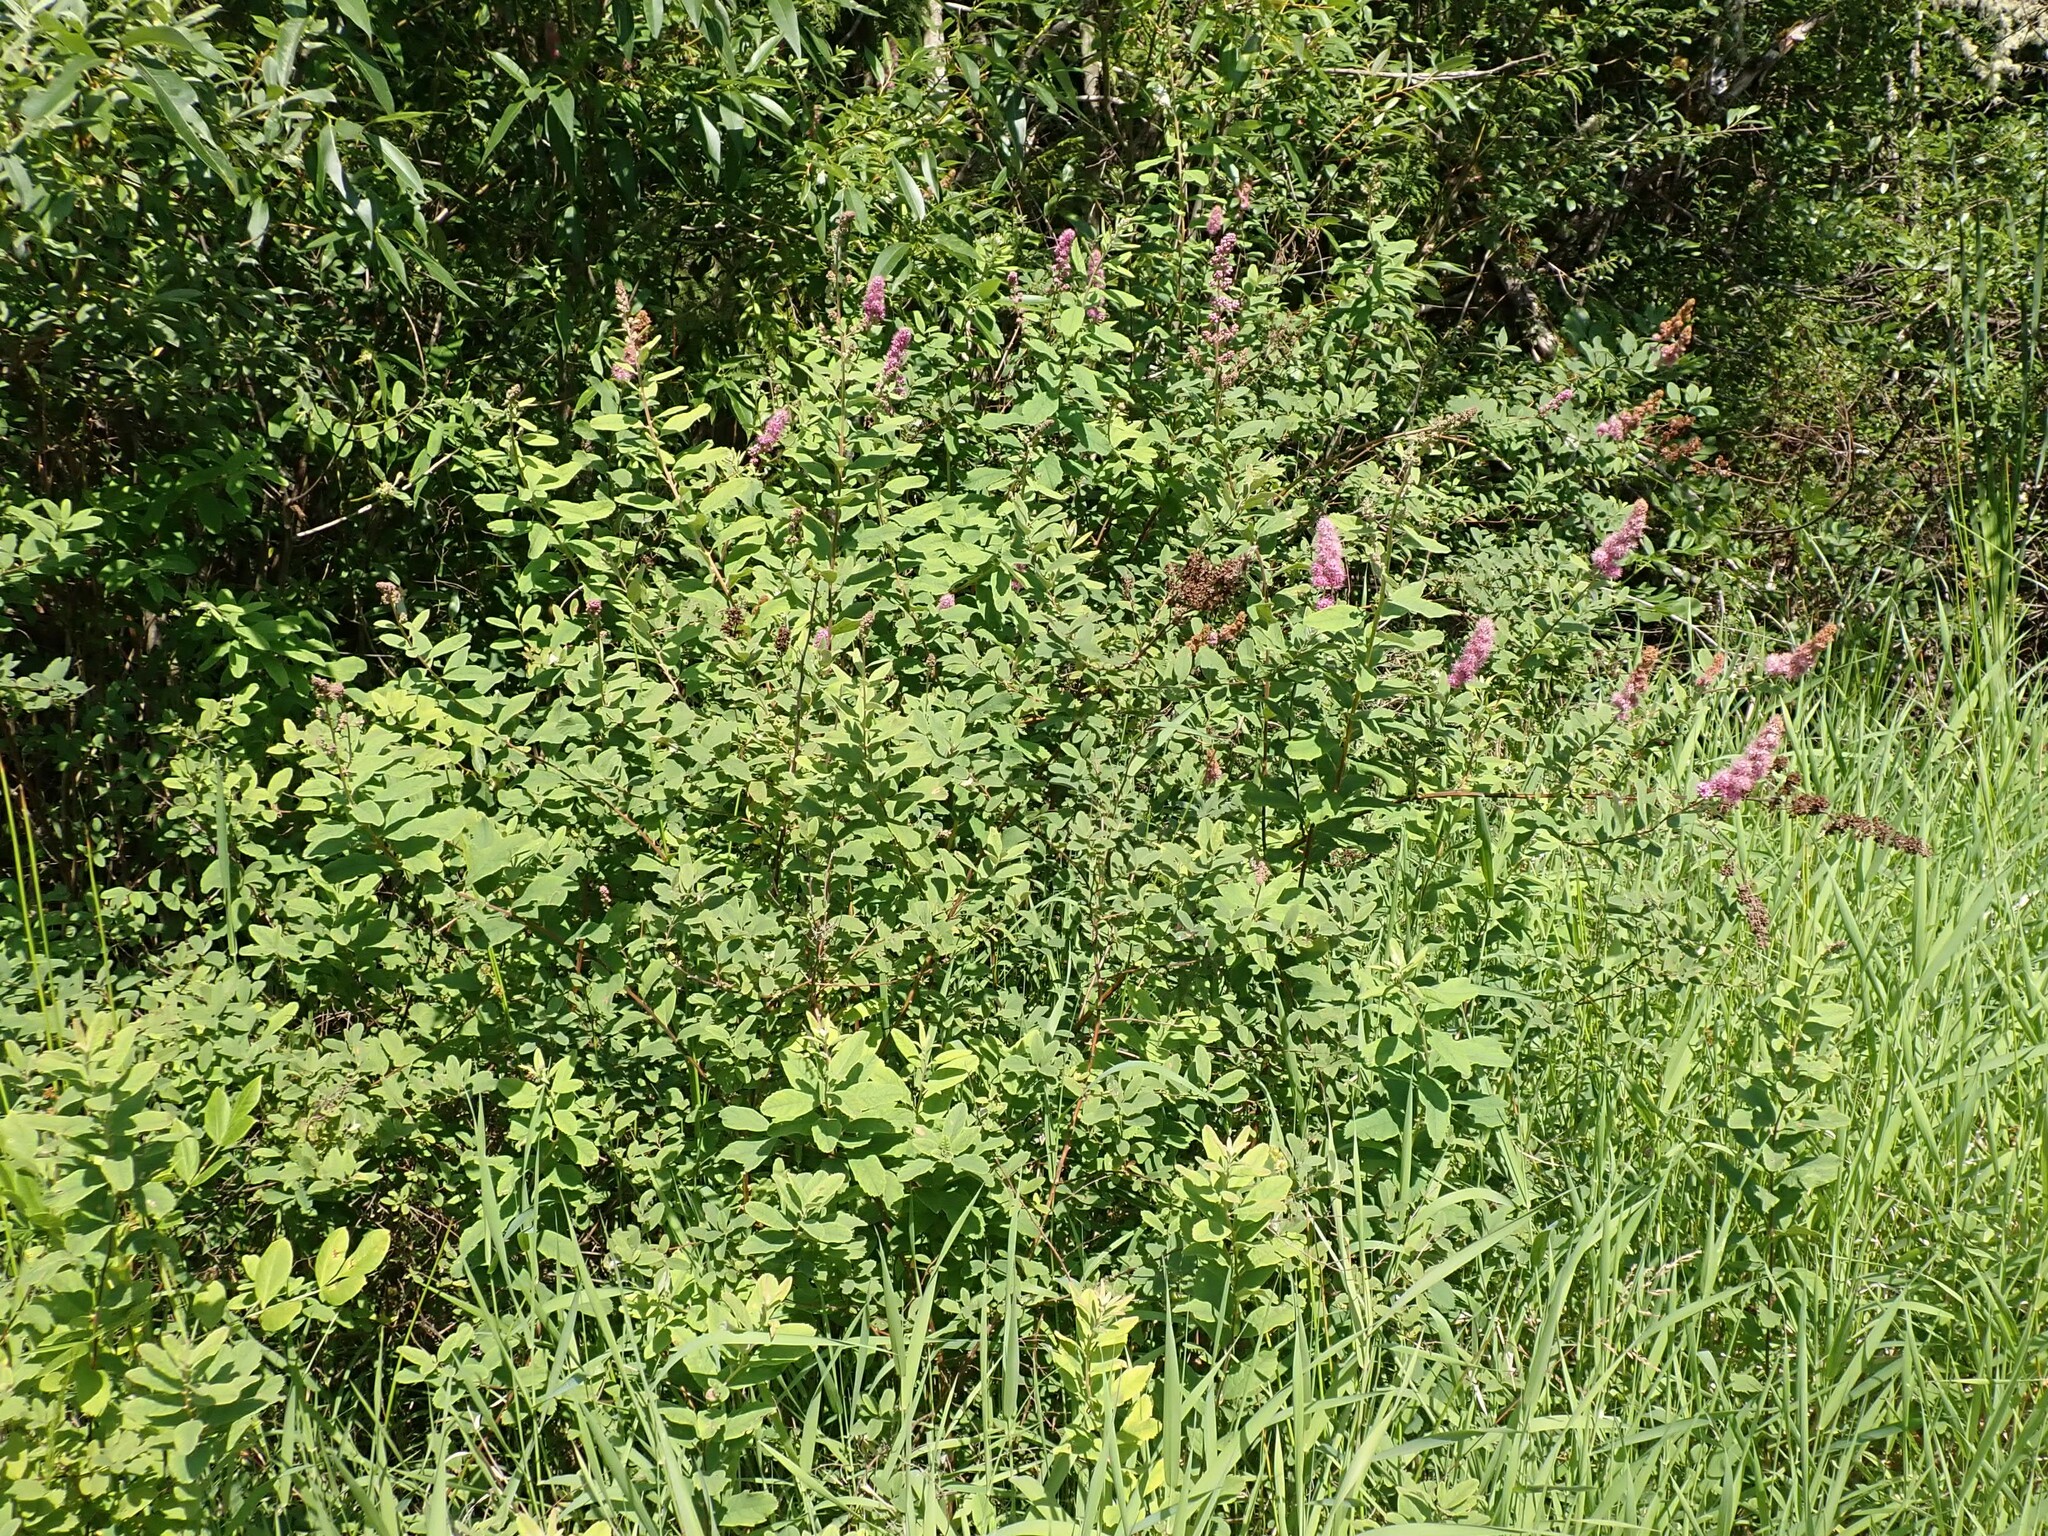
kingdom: Plantae
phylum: Tracheophyta
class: Magnoliopsida
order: Rosales
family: Rosaceae
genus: Spiraea
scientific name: Spiraea douglasii
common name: Steeplebush
